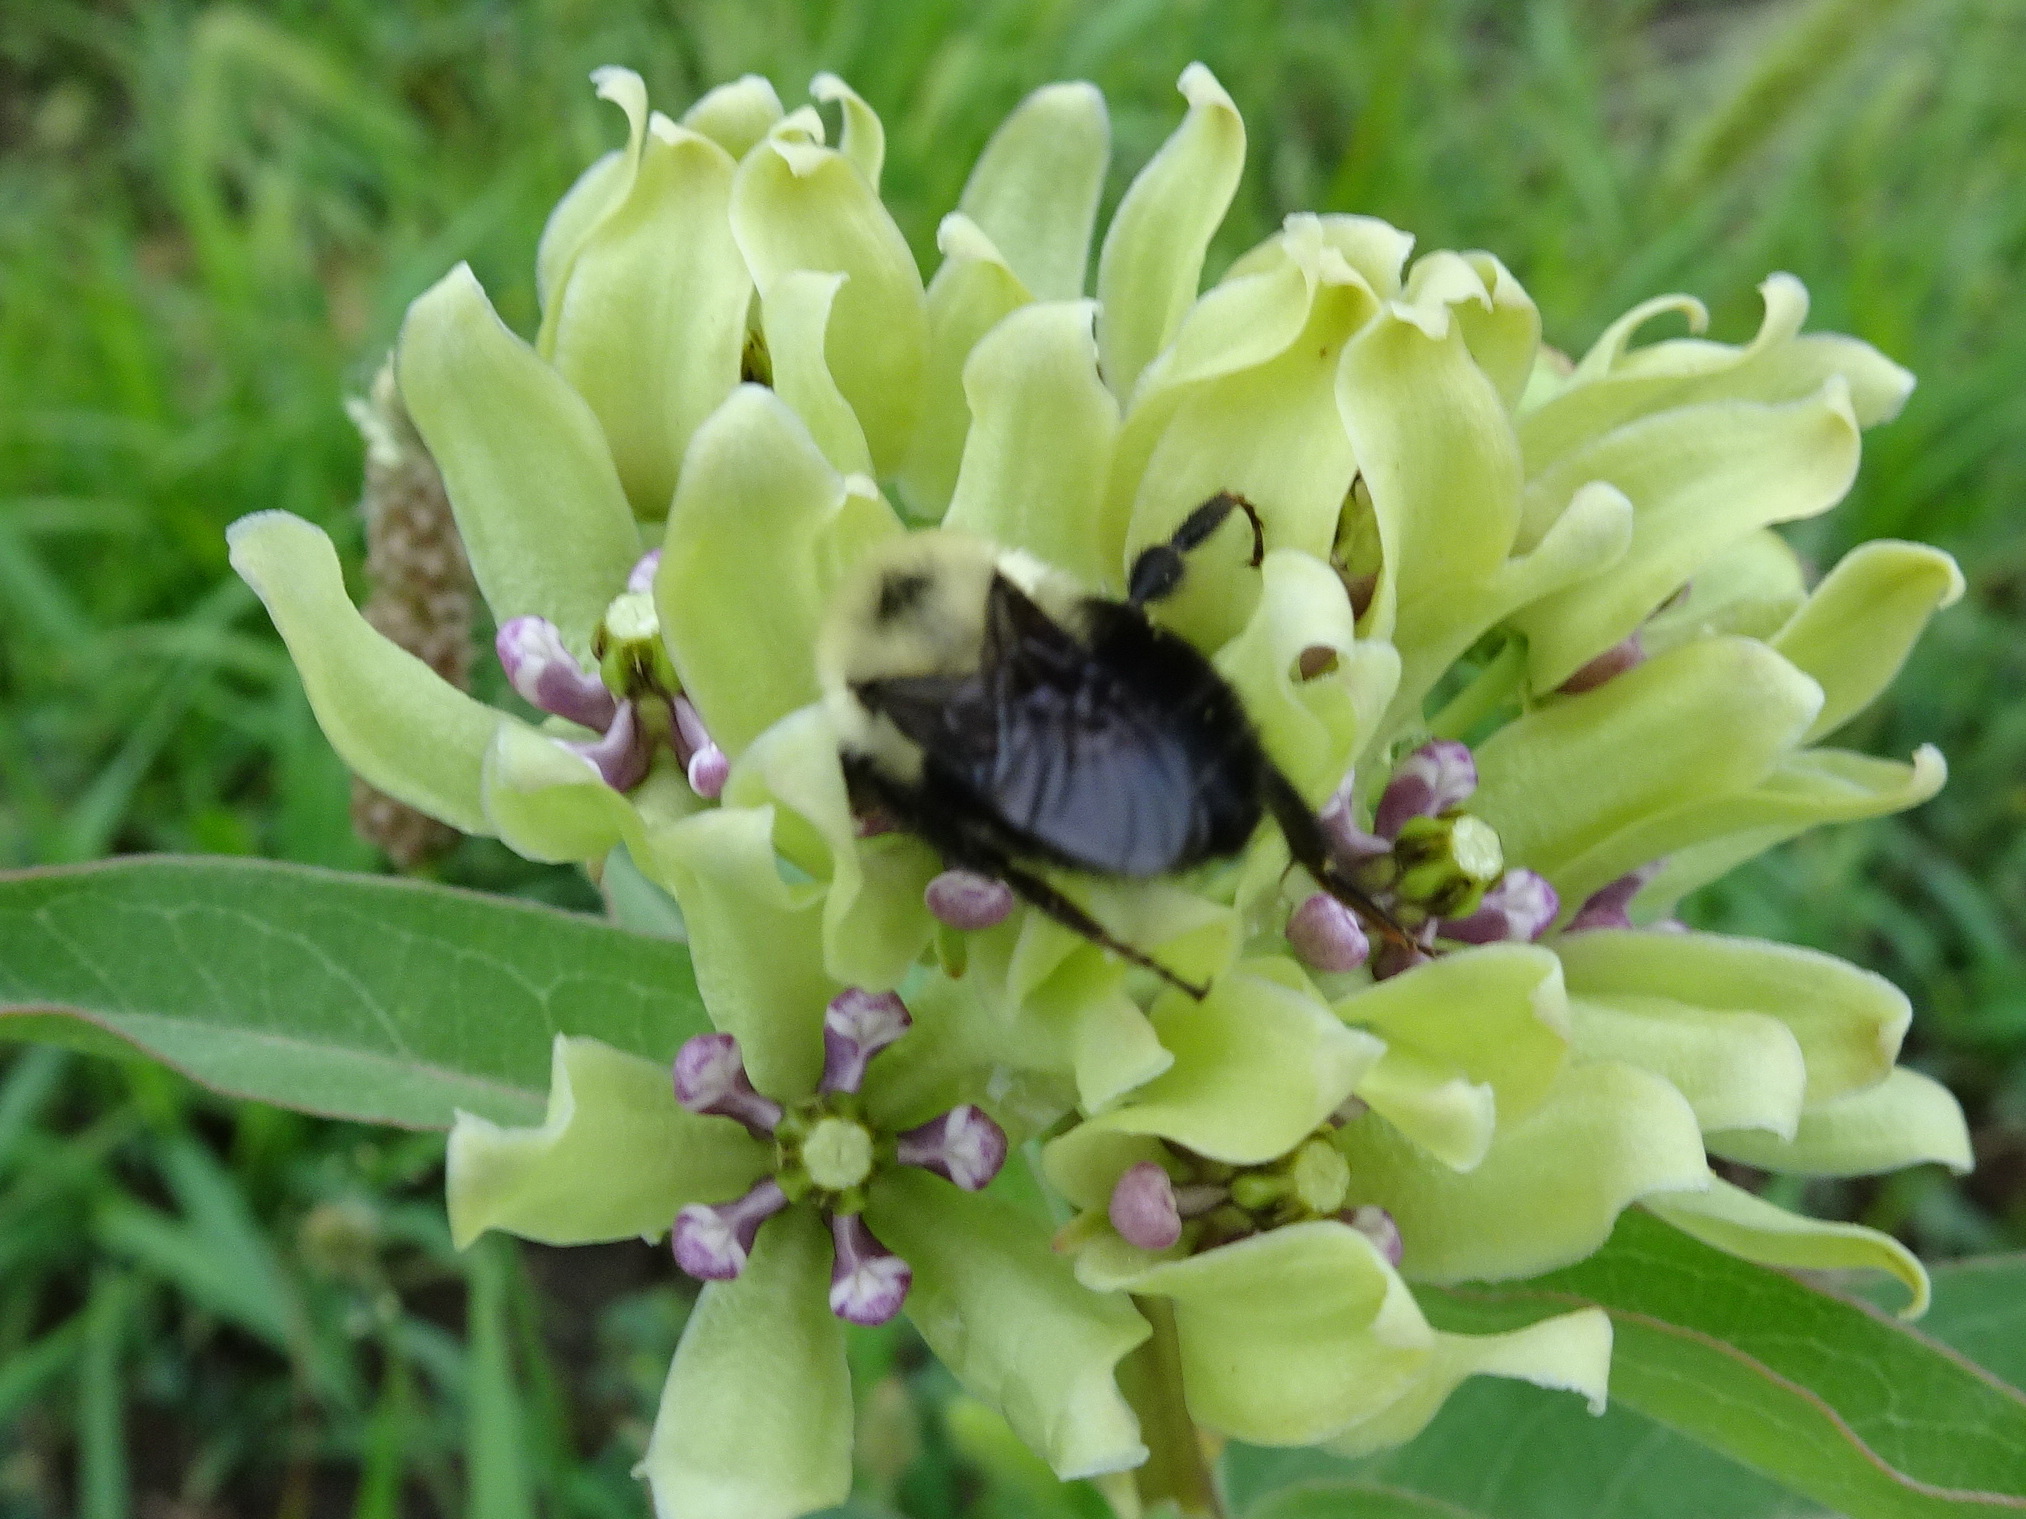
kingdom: Animalia
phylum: Arthropoda
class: Insecta
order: Hymenoptera
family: Apidae
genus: Bombus
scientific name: Bombus bimaculatus
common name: Two-spotted bumble bee
